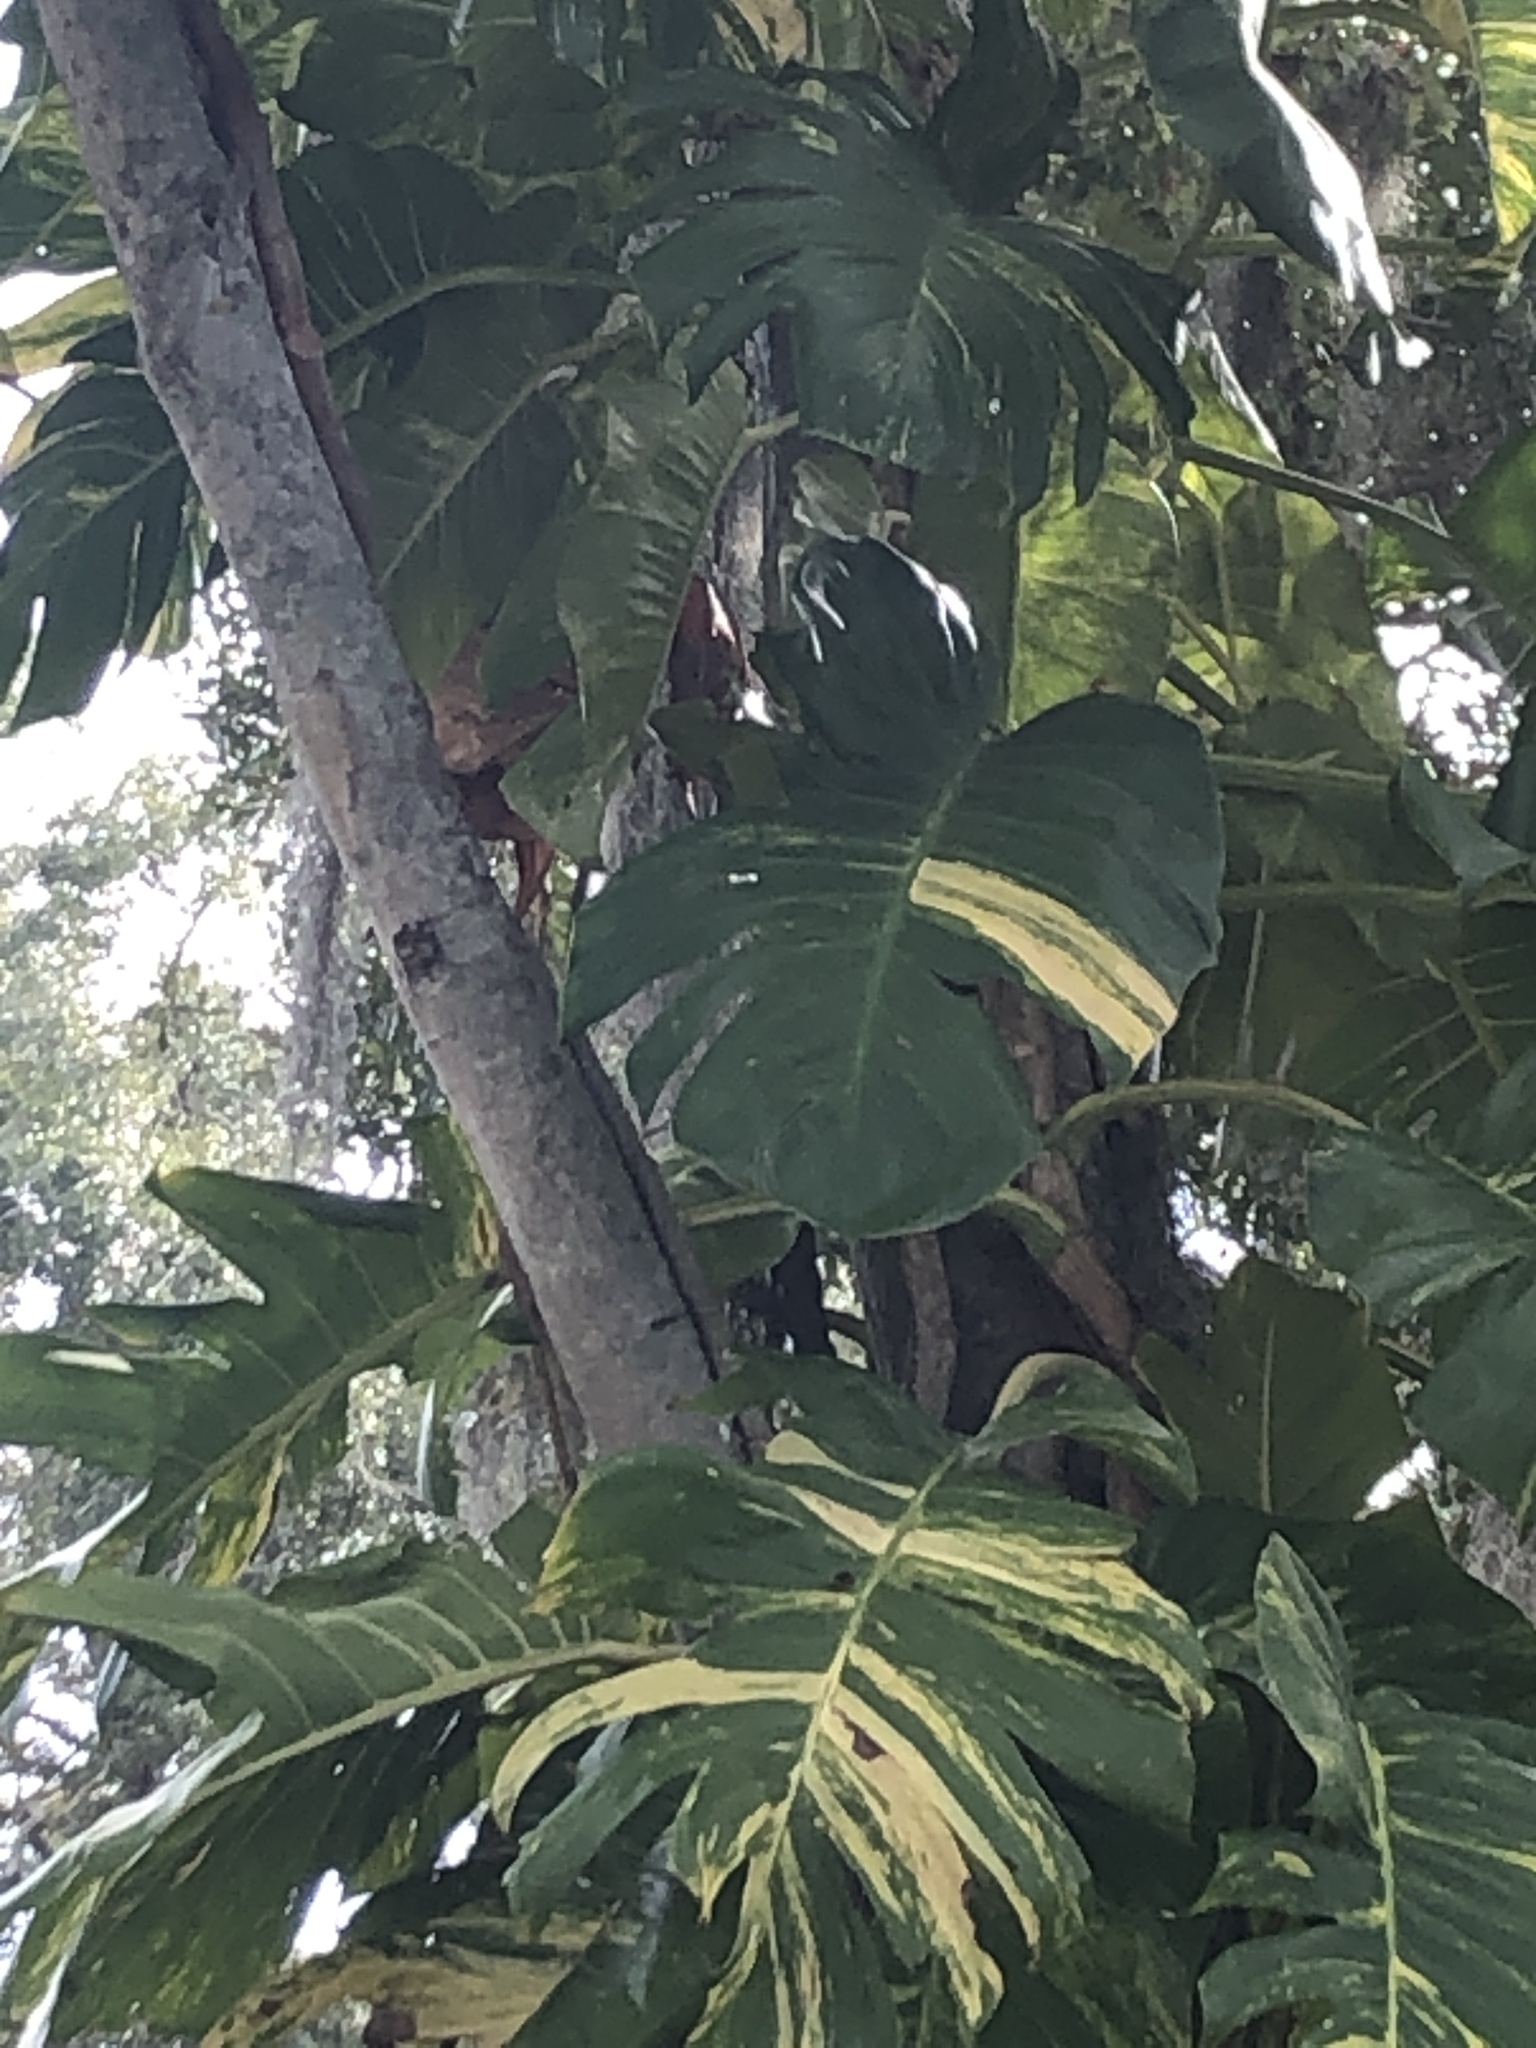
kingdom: Plantae
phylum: Tracheophyta
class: Liliopsida
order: Alismatales
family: Araceae
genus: Epipremnum
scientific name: Epipremnum aureum
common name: Golden hunter's-robe
